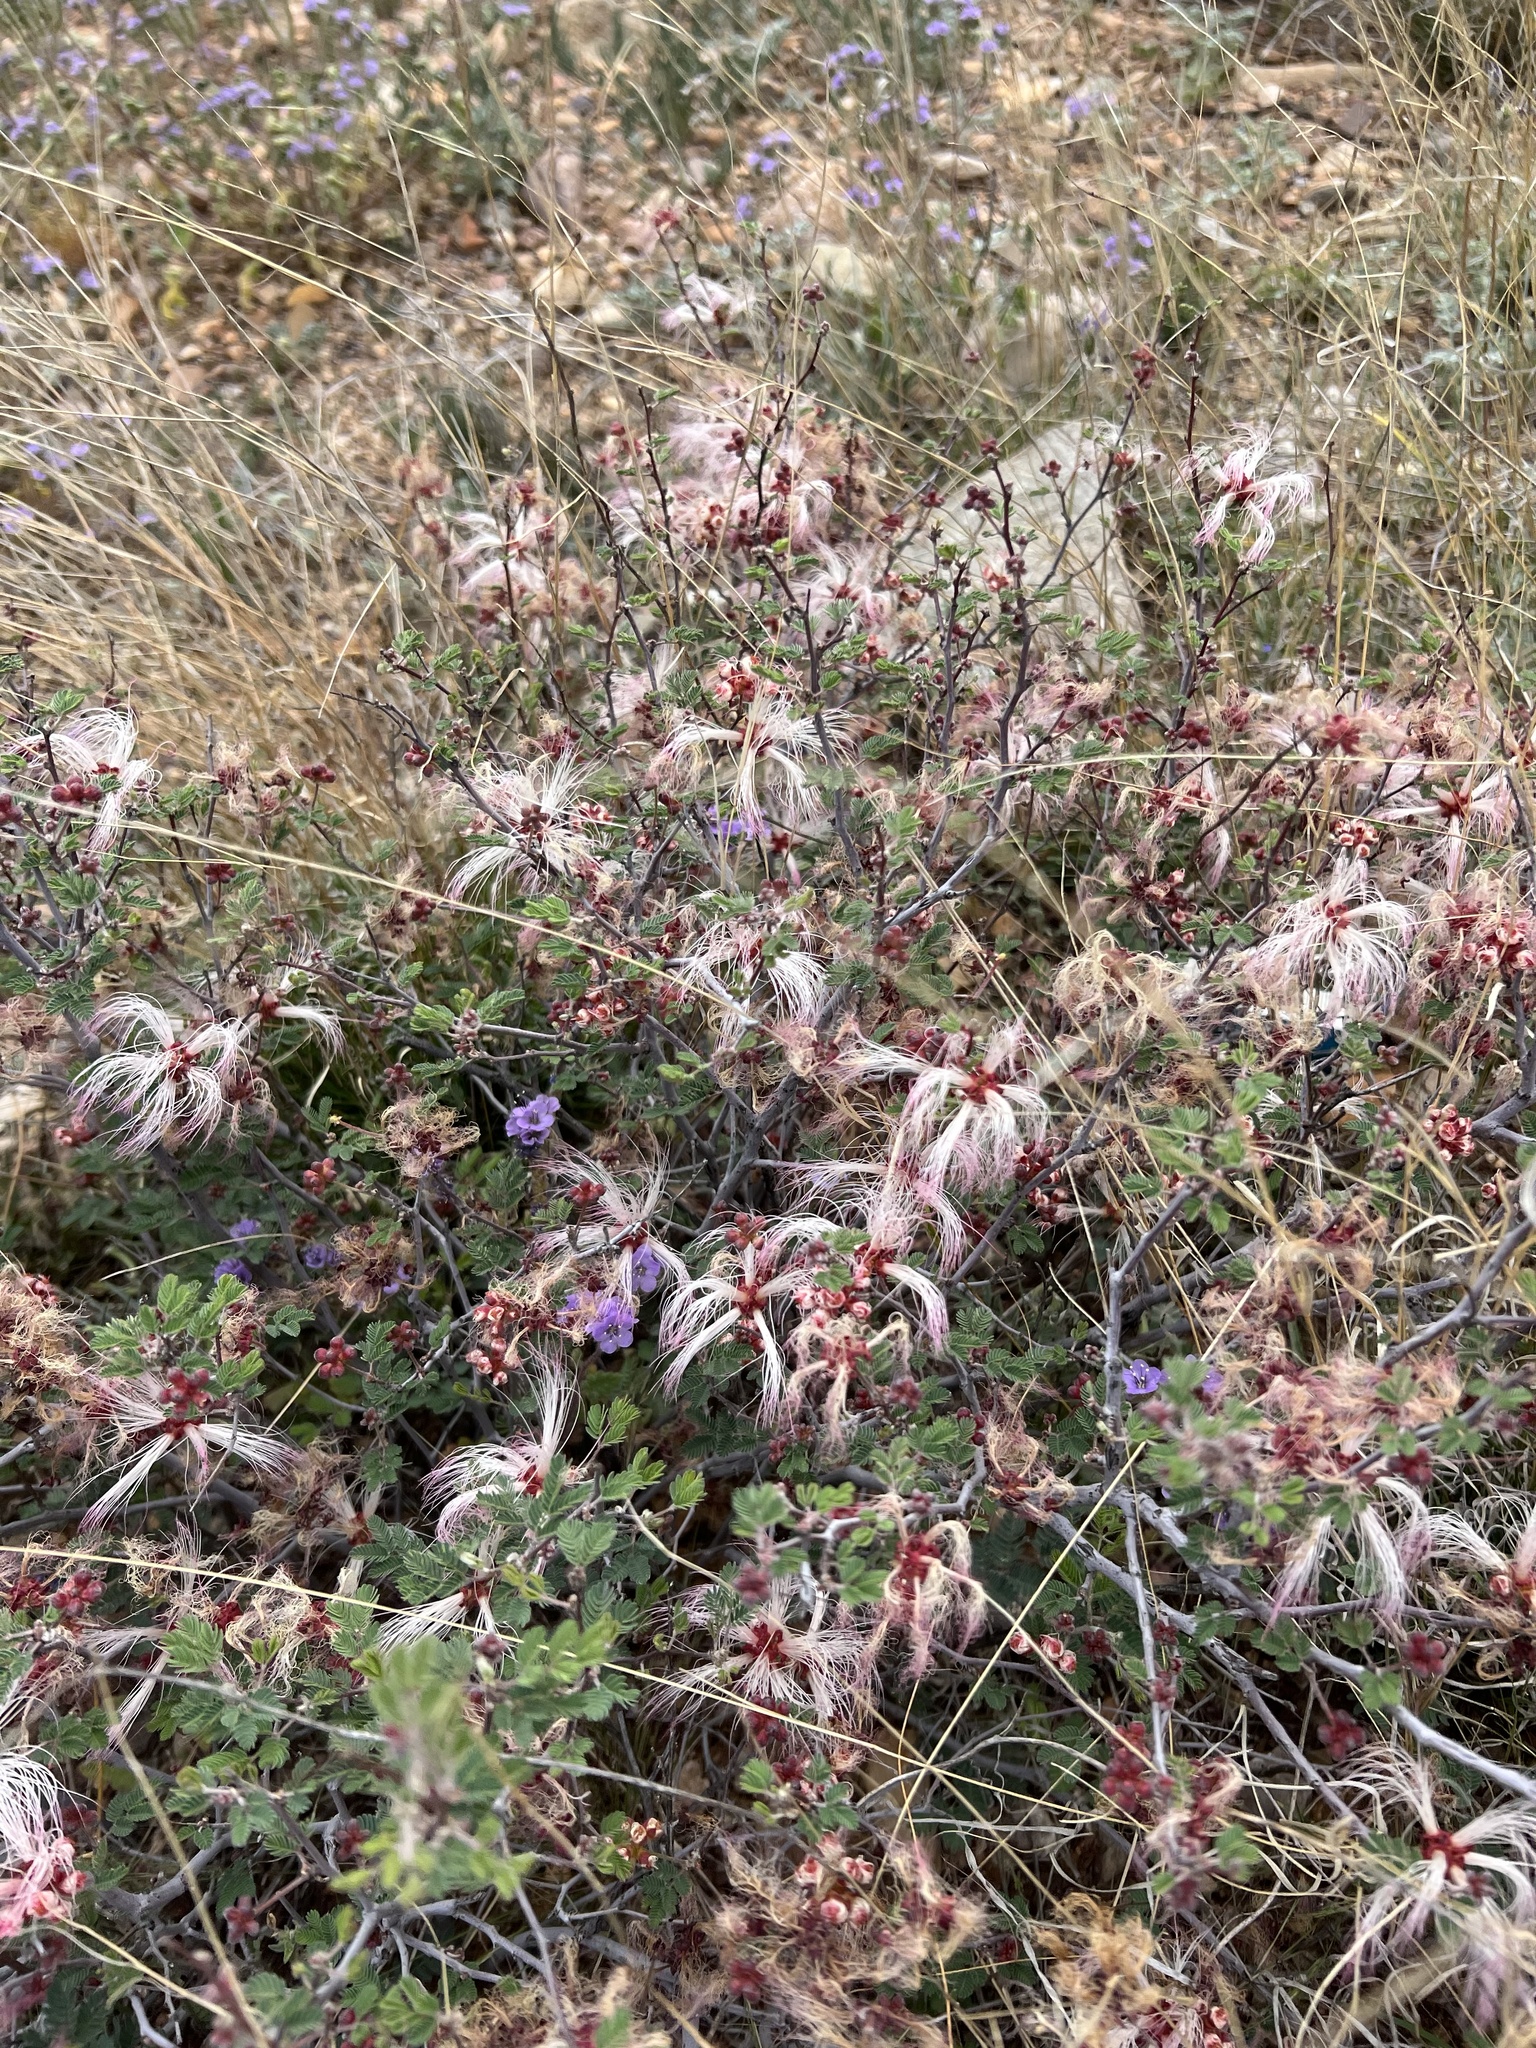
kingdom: Plantae
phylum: Tracheophyta
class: Magnoliopsida
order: Fabales
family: Fabaceae
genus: Calliandra
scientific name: Calliandra eriophylla
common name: Fairy-duster
